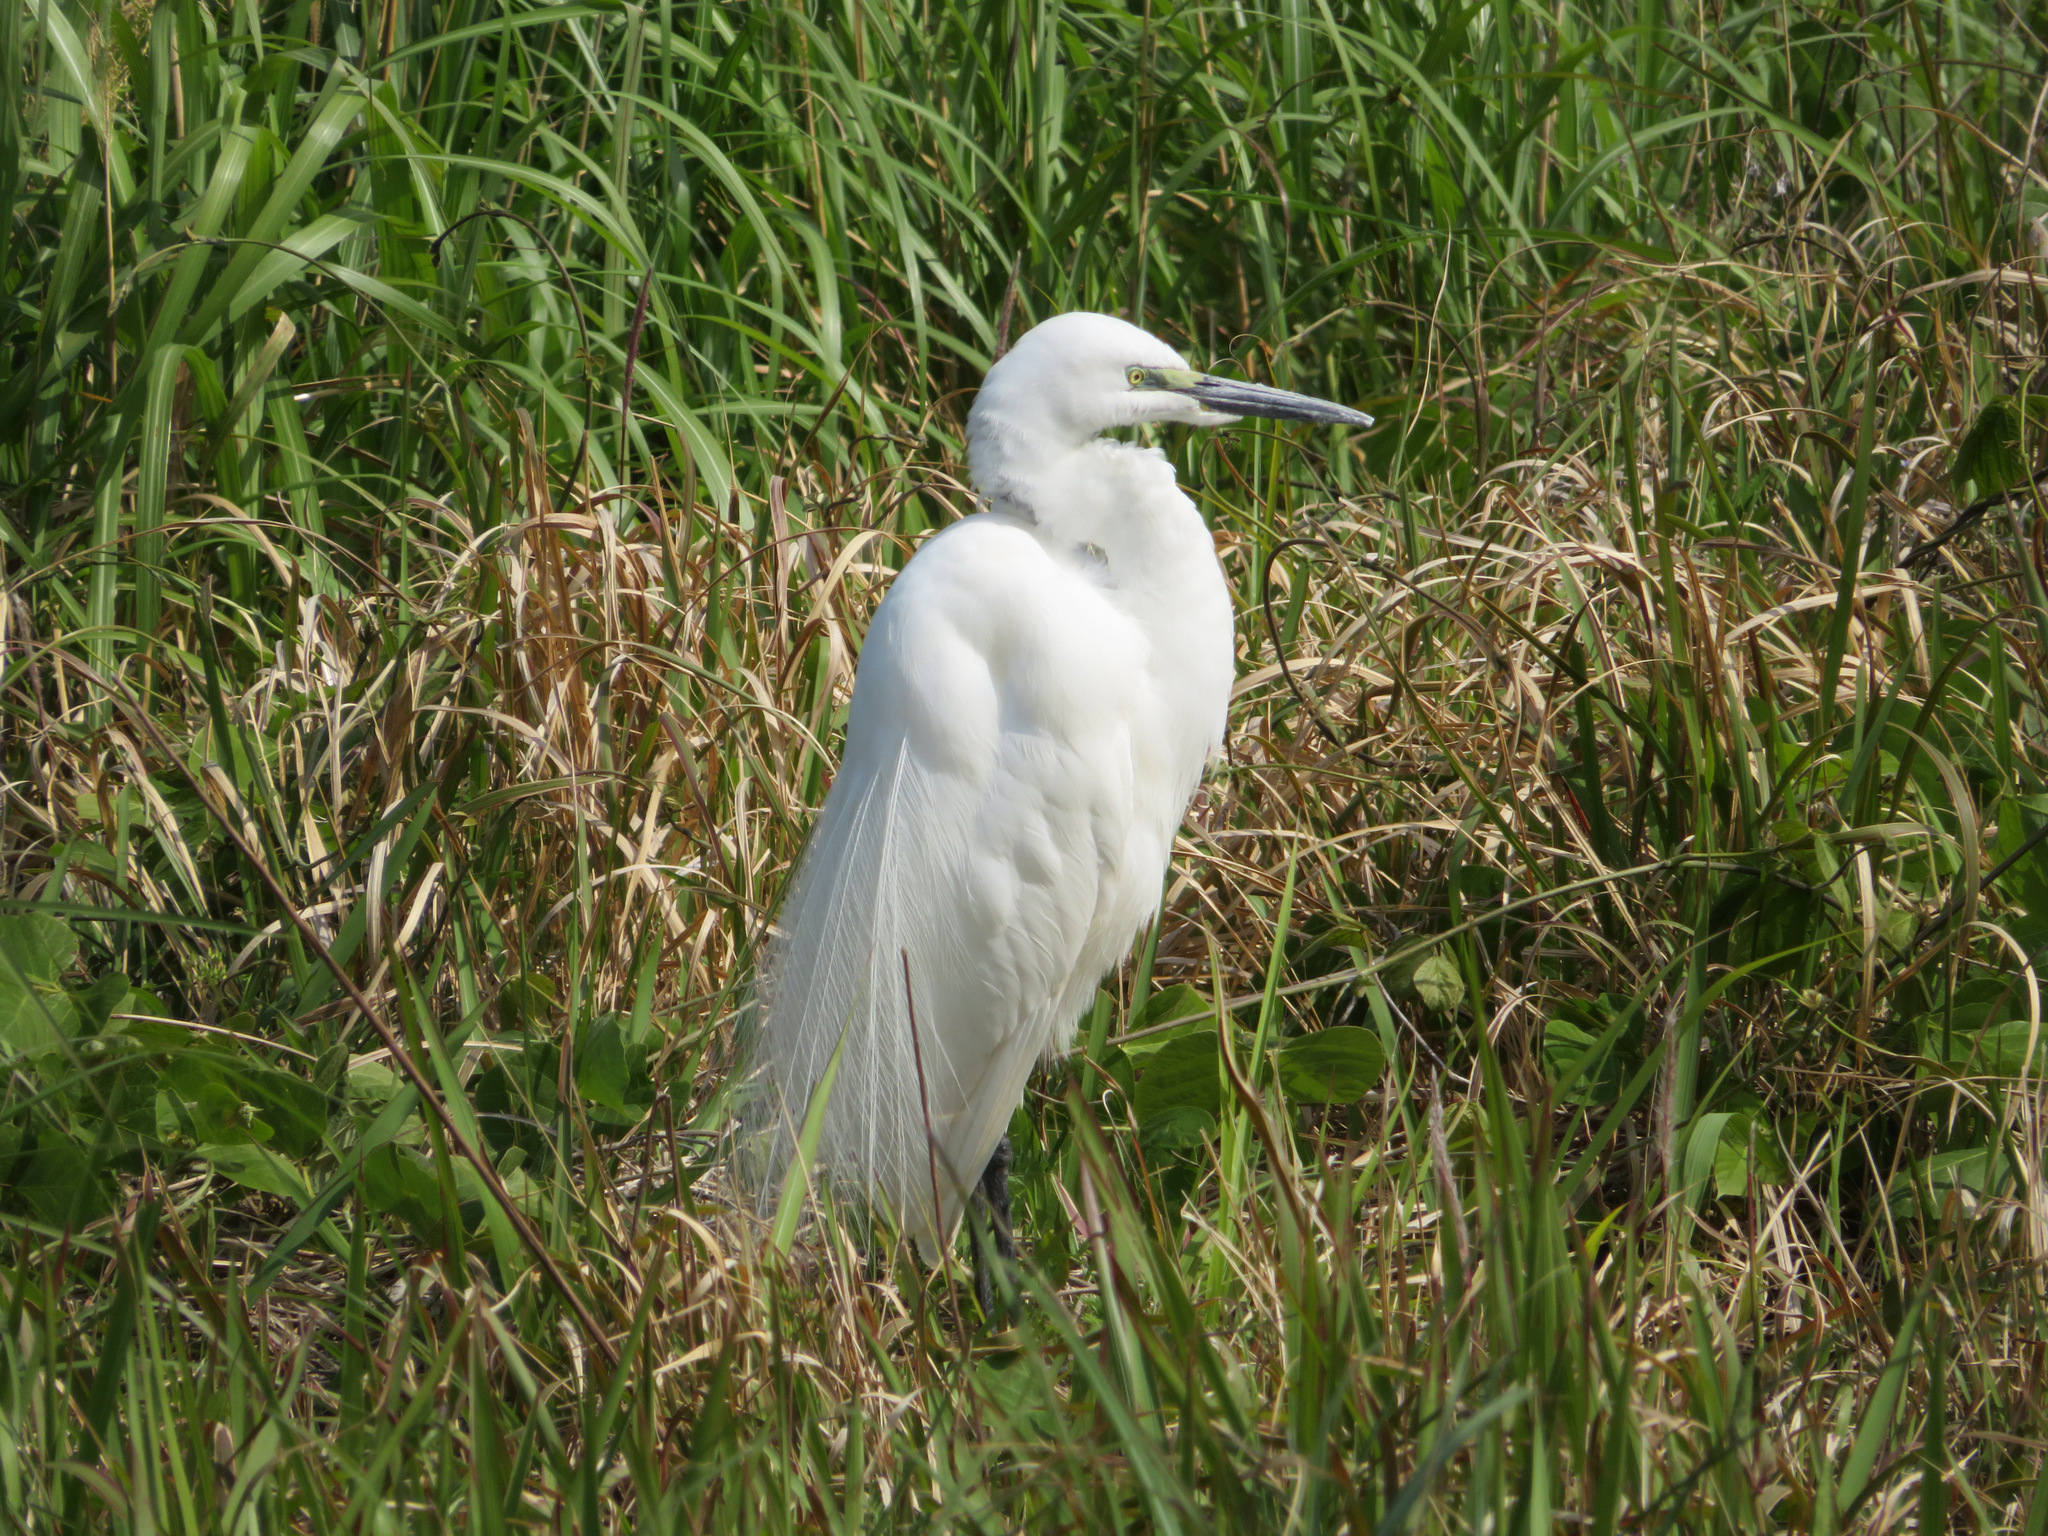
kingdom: Animalia
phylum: Chordata
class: Aves
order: Pelecaniformes
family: Ardeidae
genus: Ardea
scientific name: Ardea alba
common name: Great egret
